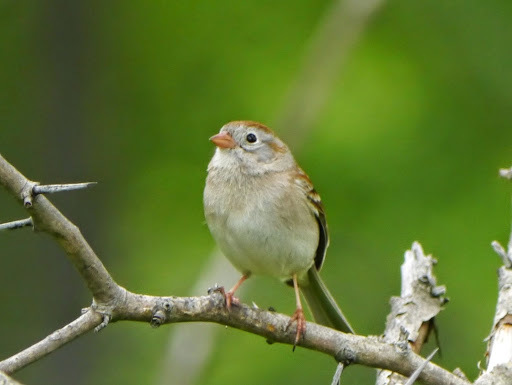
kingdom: Animalia
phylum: Chordata
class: Aves
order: Passeriformes
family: Passerellidae
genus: Spizella
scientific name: Spizella pusilla
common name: Field sparrow
